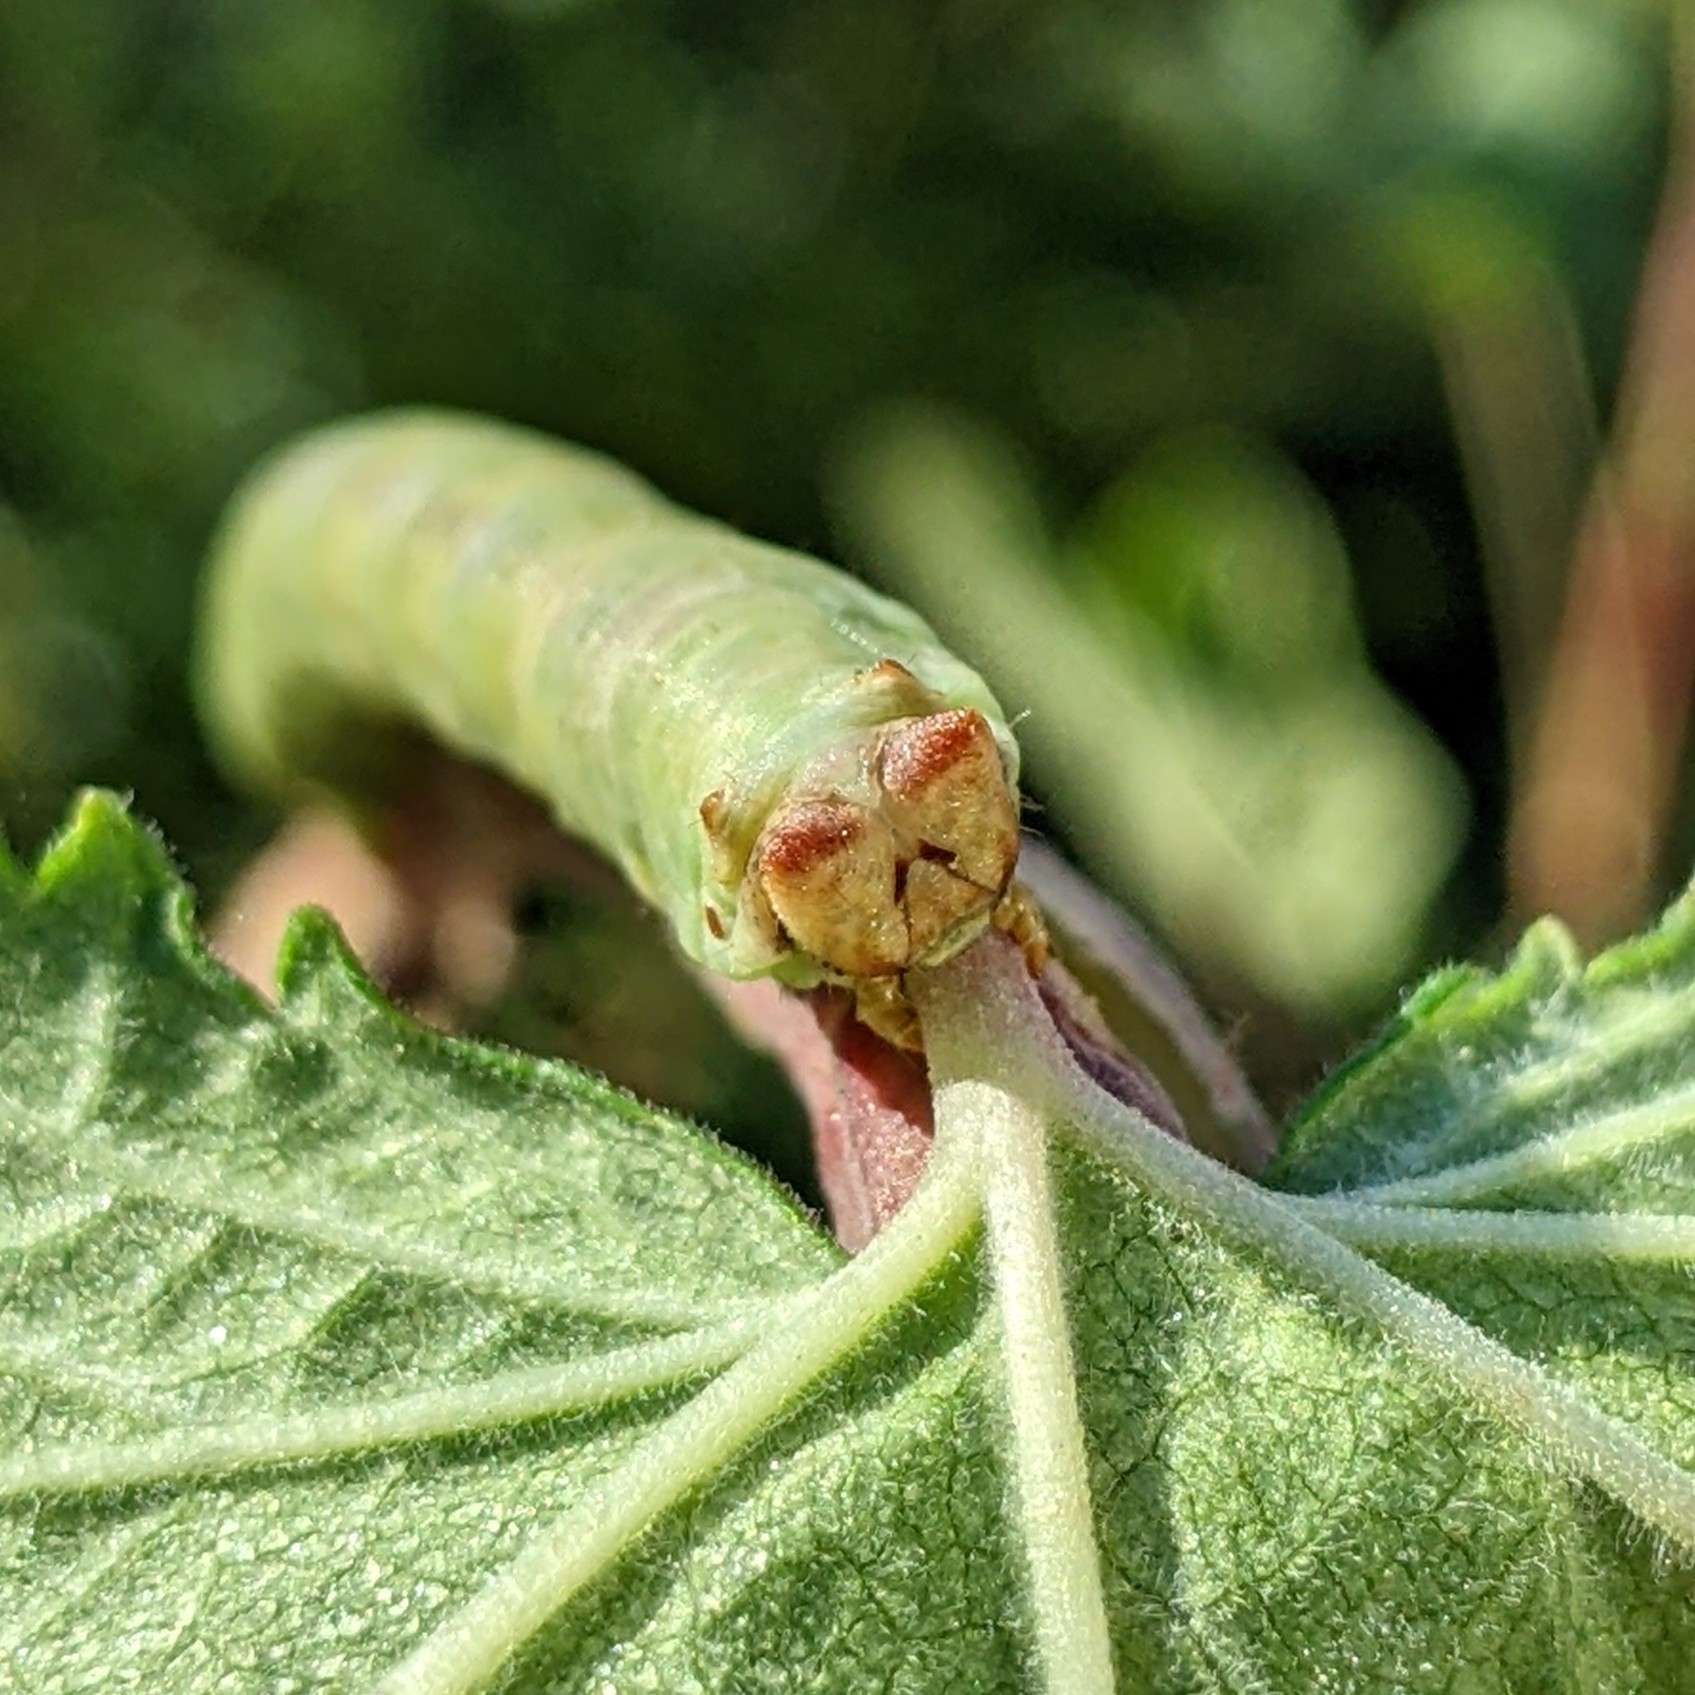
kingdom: Animalia
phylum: Arthropoda
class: Insecta
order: Lepidoptera
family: Geometridae
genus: Biston
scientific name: Biston betularia
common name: Peppered moth
